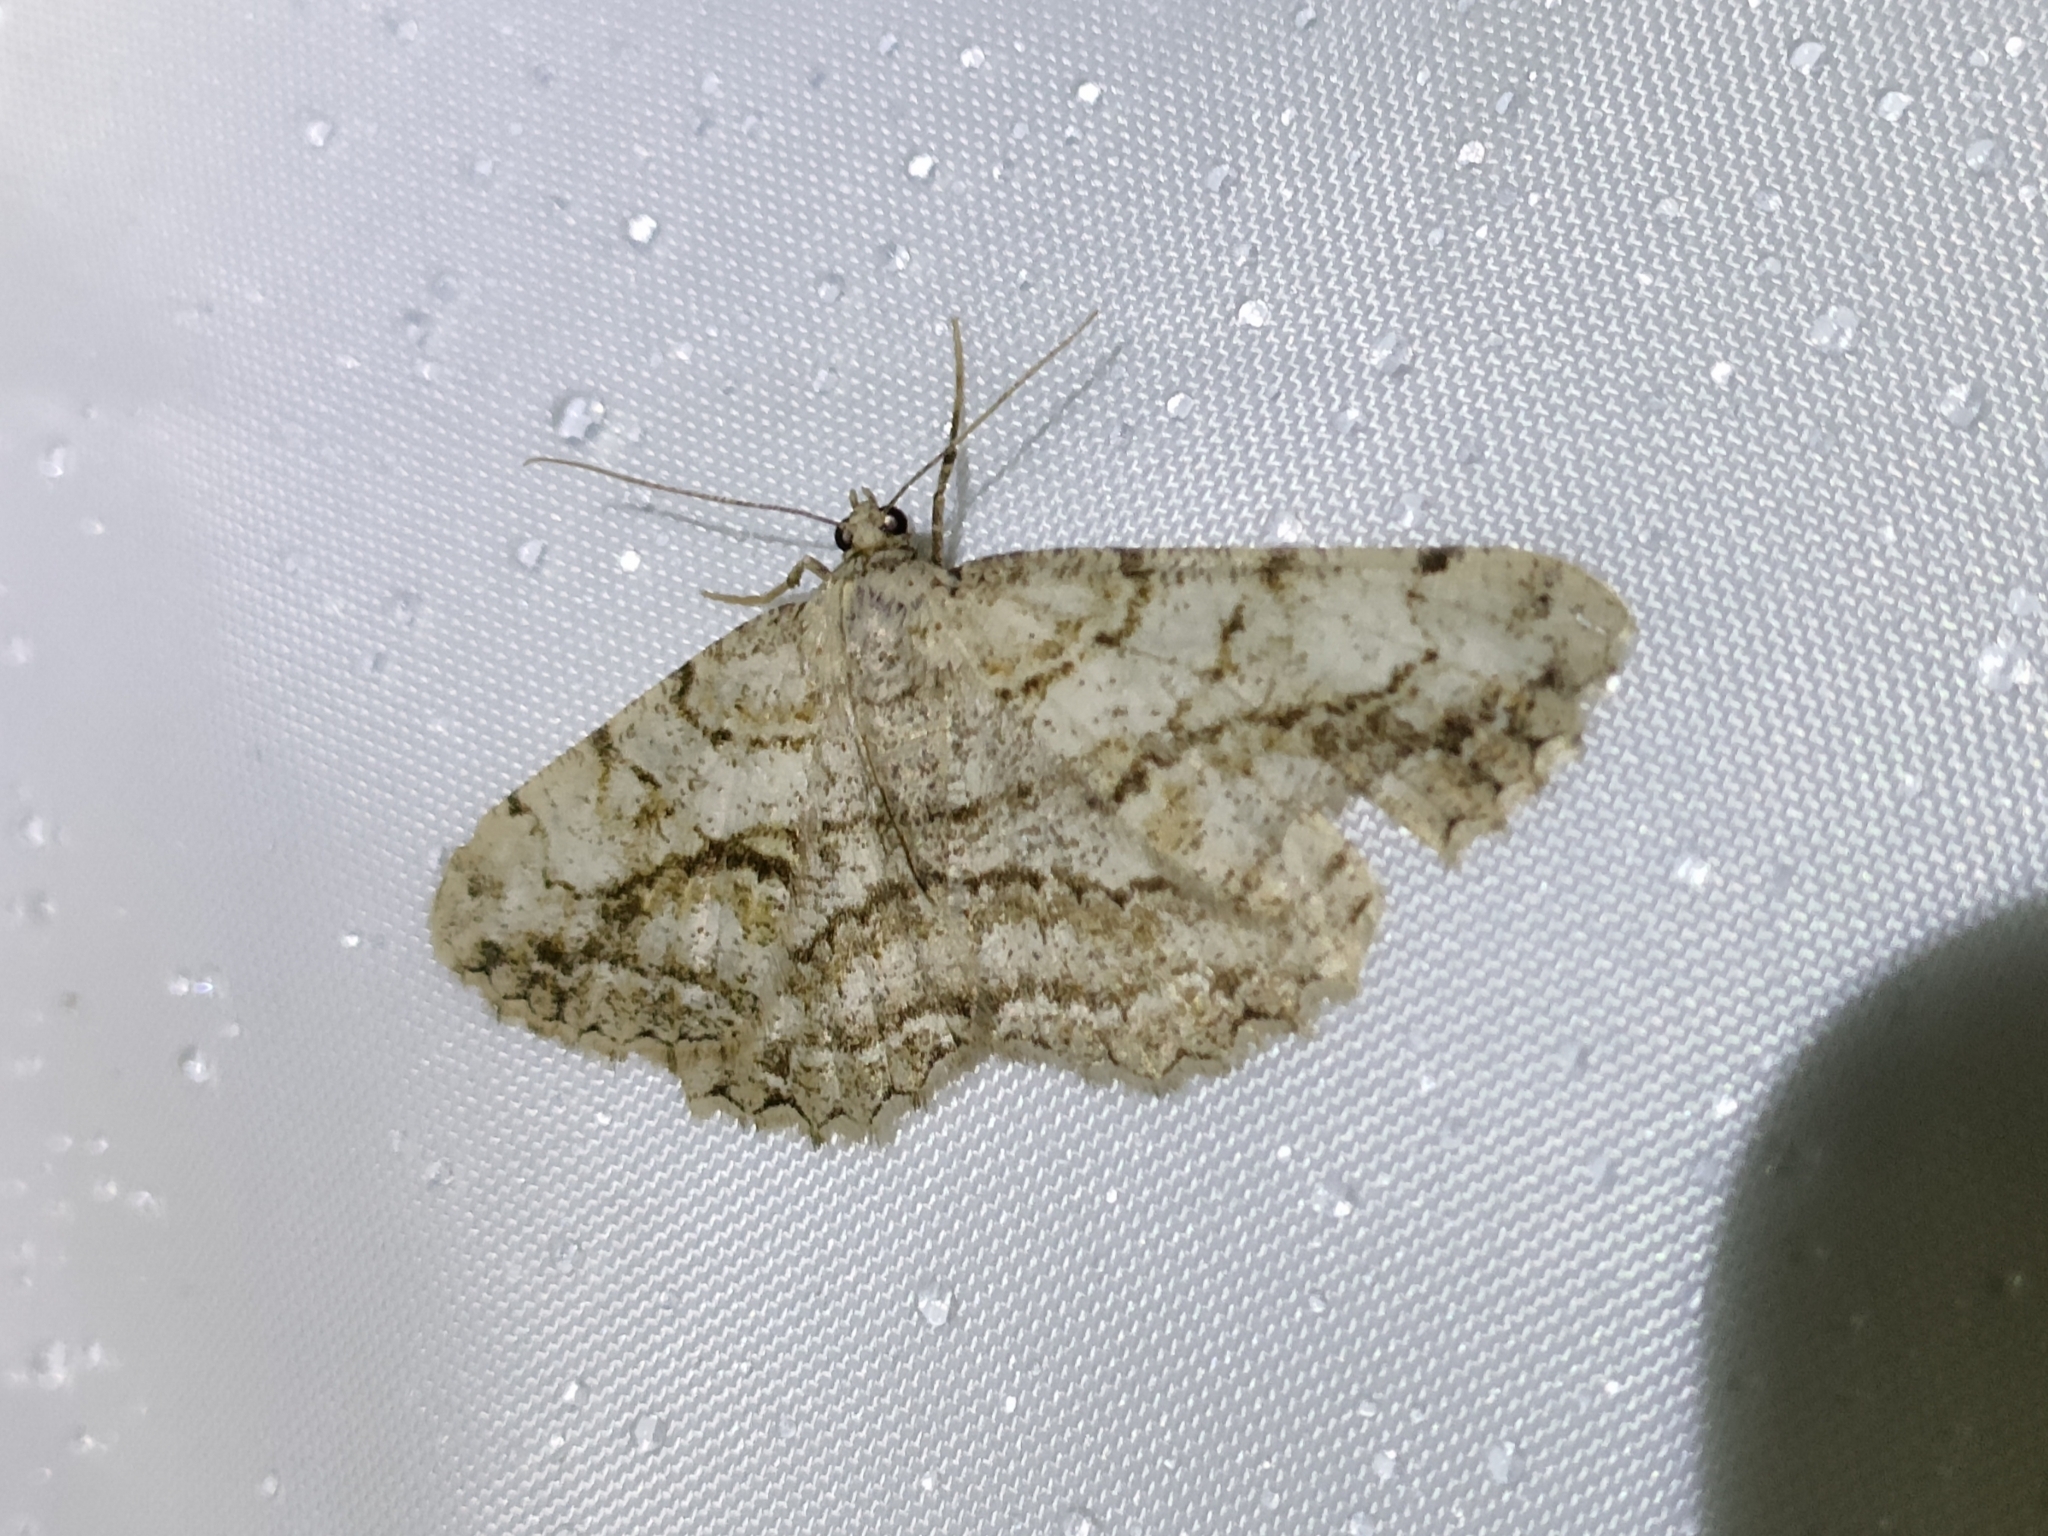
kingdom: Animalia
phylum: Arthropoda
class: Insecta
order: Lepidoptera
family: Geometridae
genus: Peribatodes
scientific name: Peribatodes perversaria
